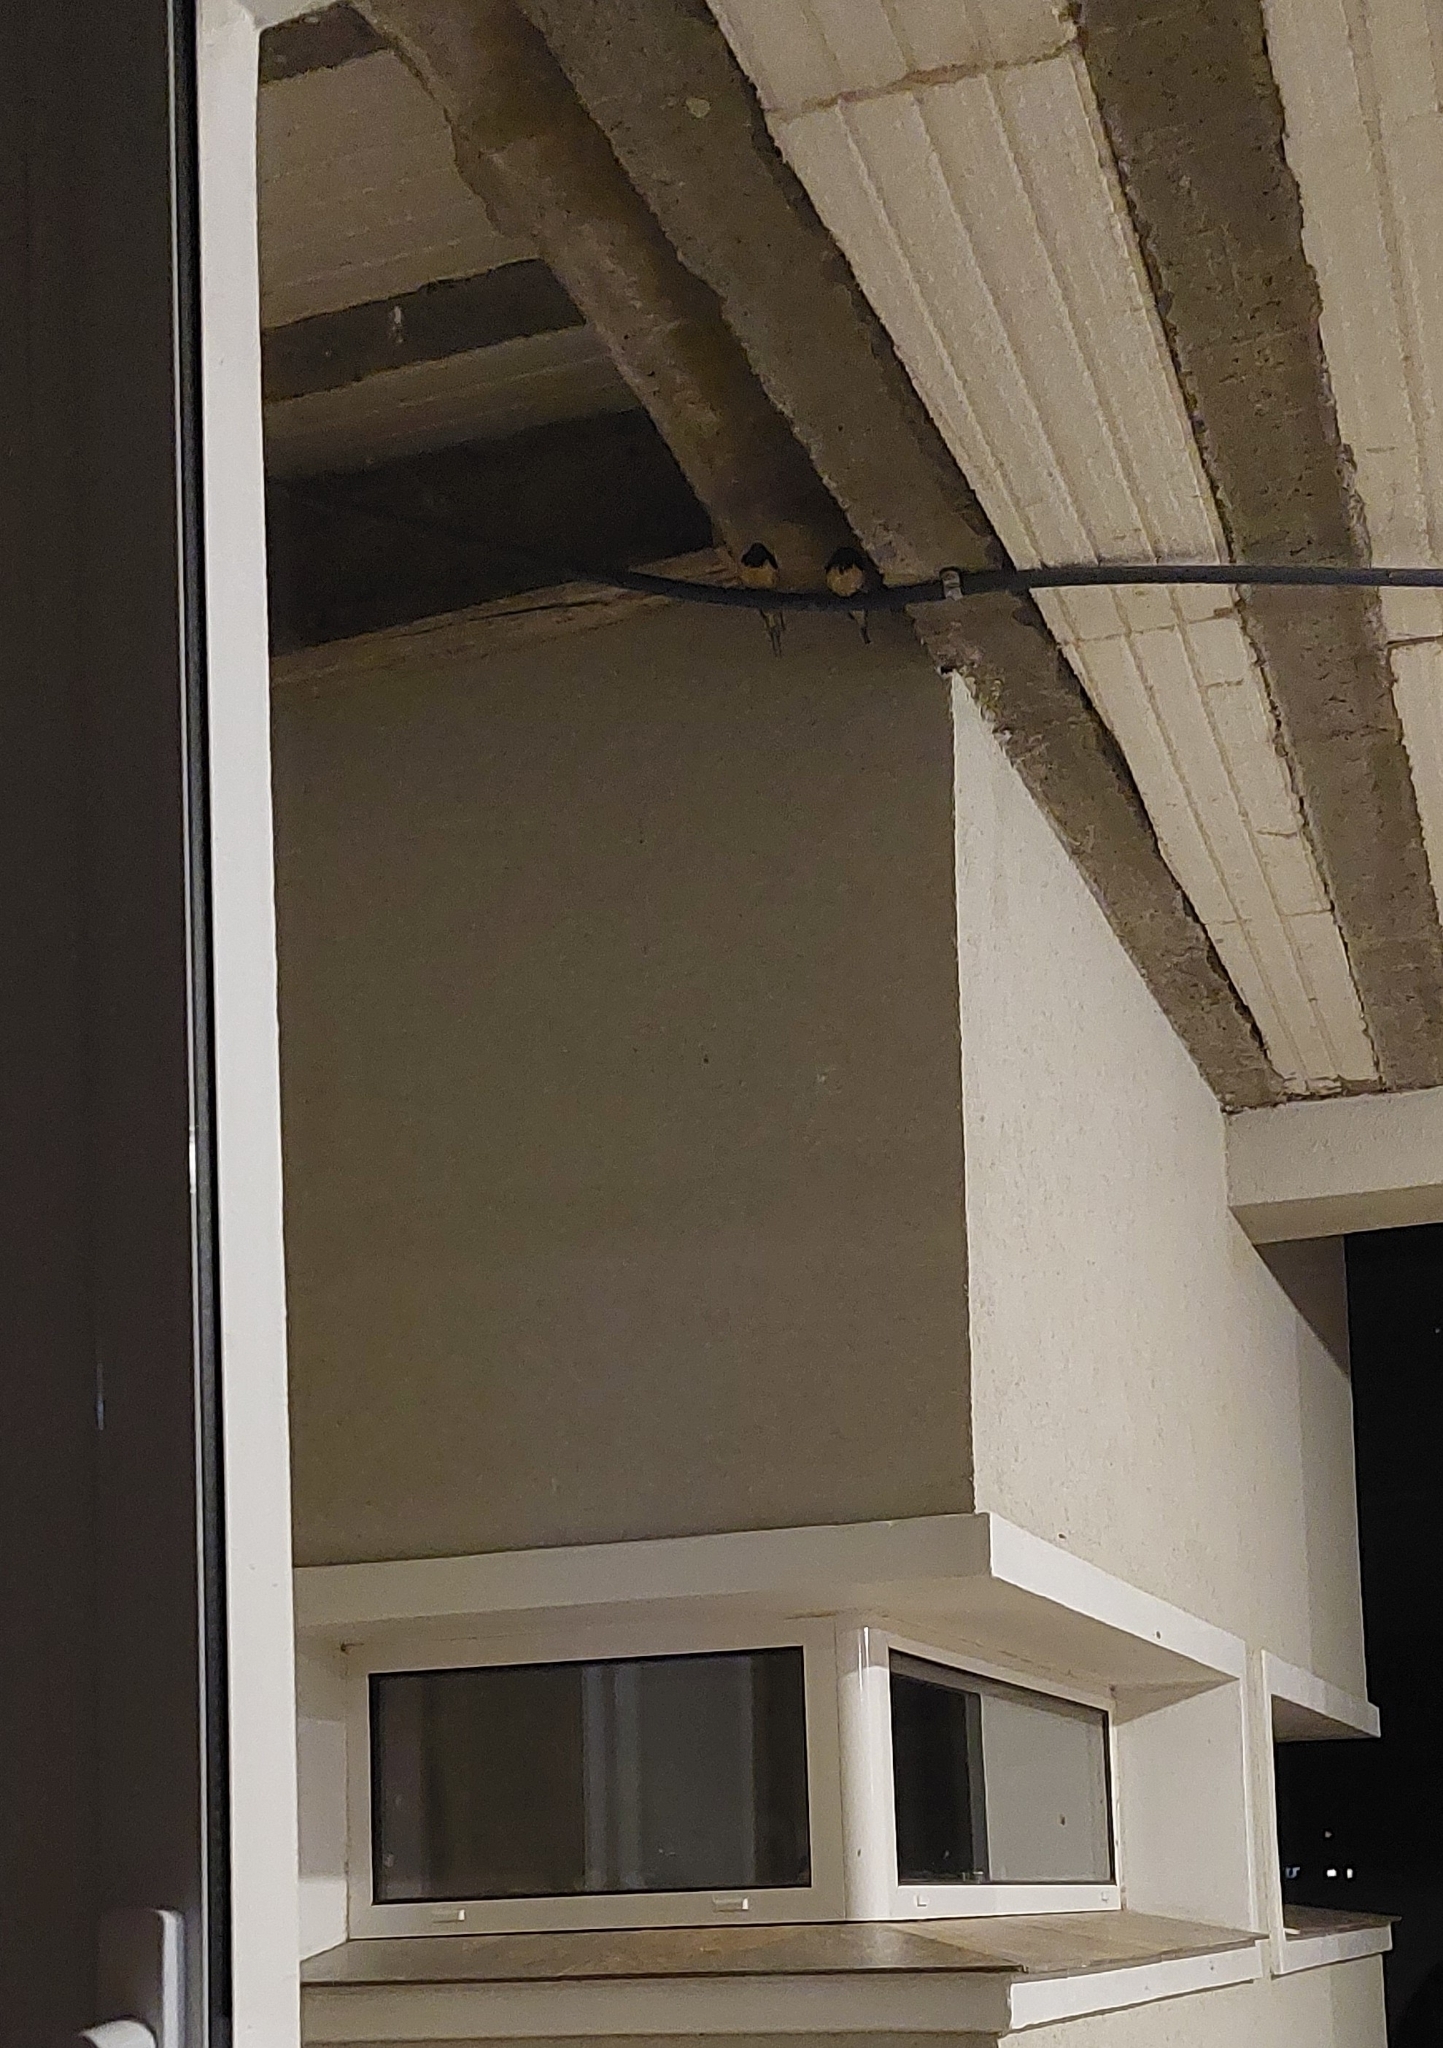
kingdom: Animalia
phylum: Chordata
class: Aves
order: Passeriformes
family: Hirundinidae
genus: Hirundo
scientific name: Hirundo rustica
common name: Barn swallow
